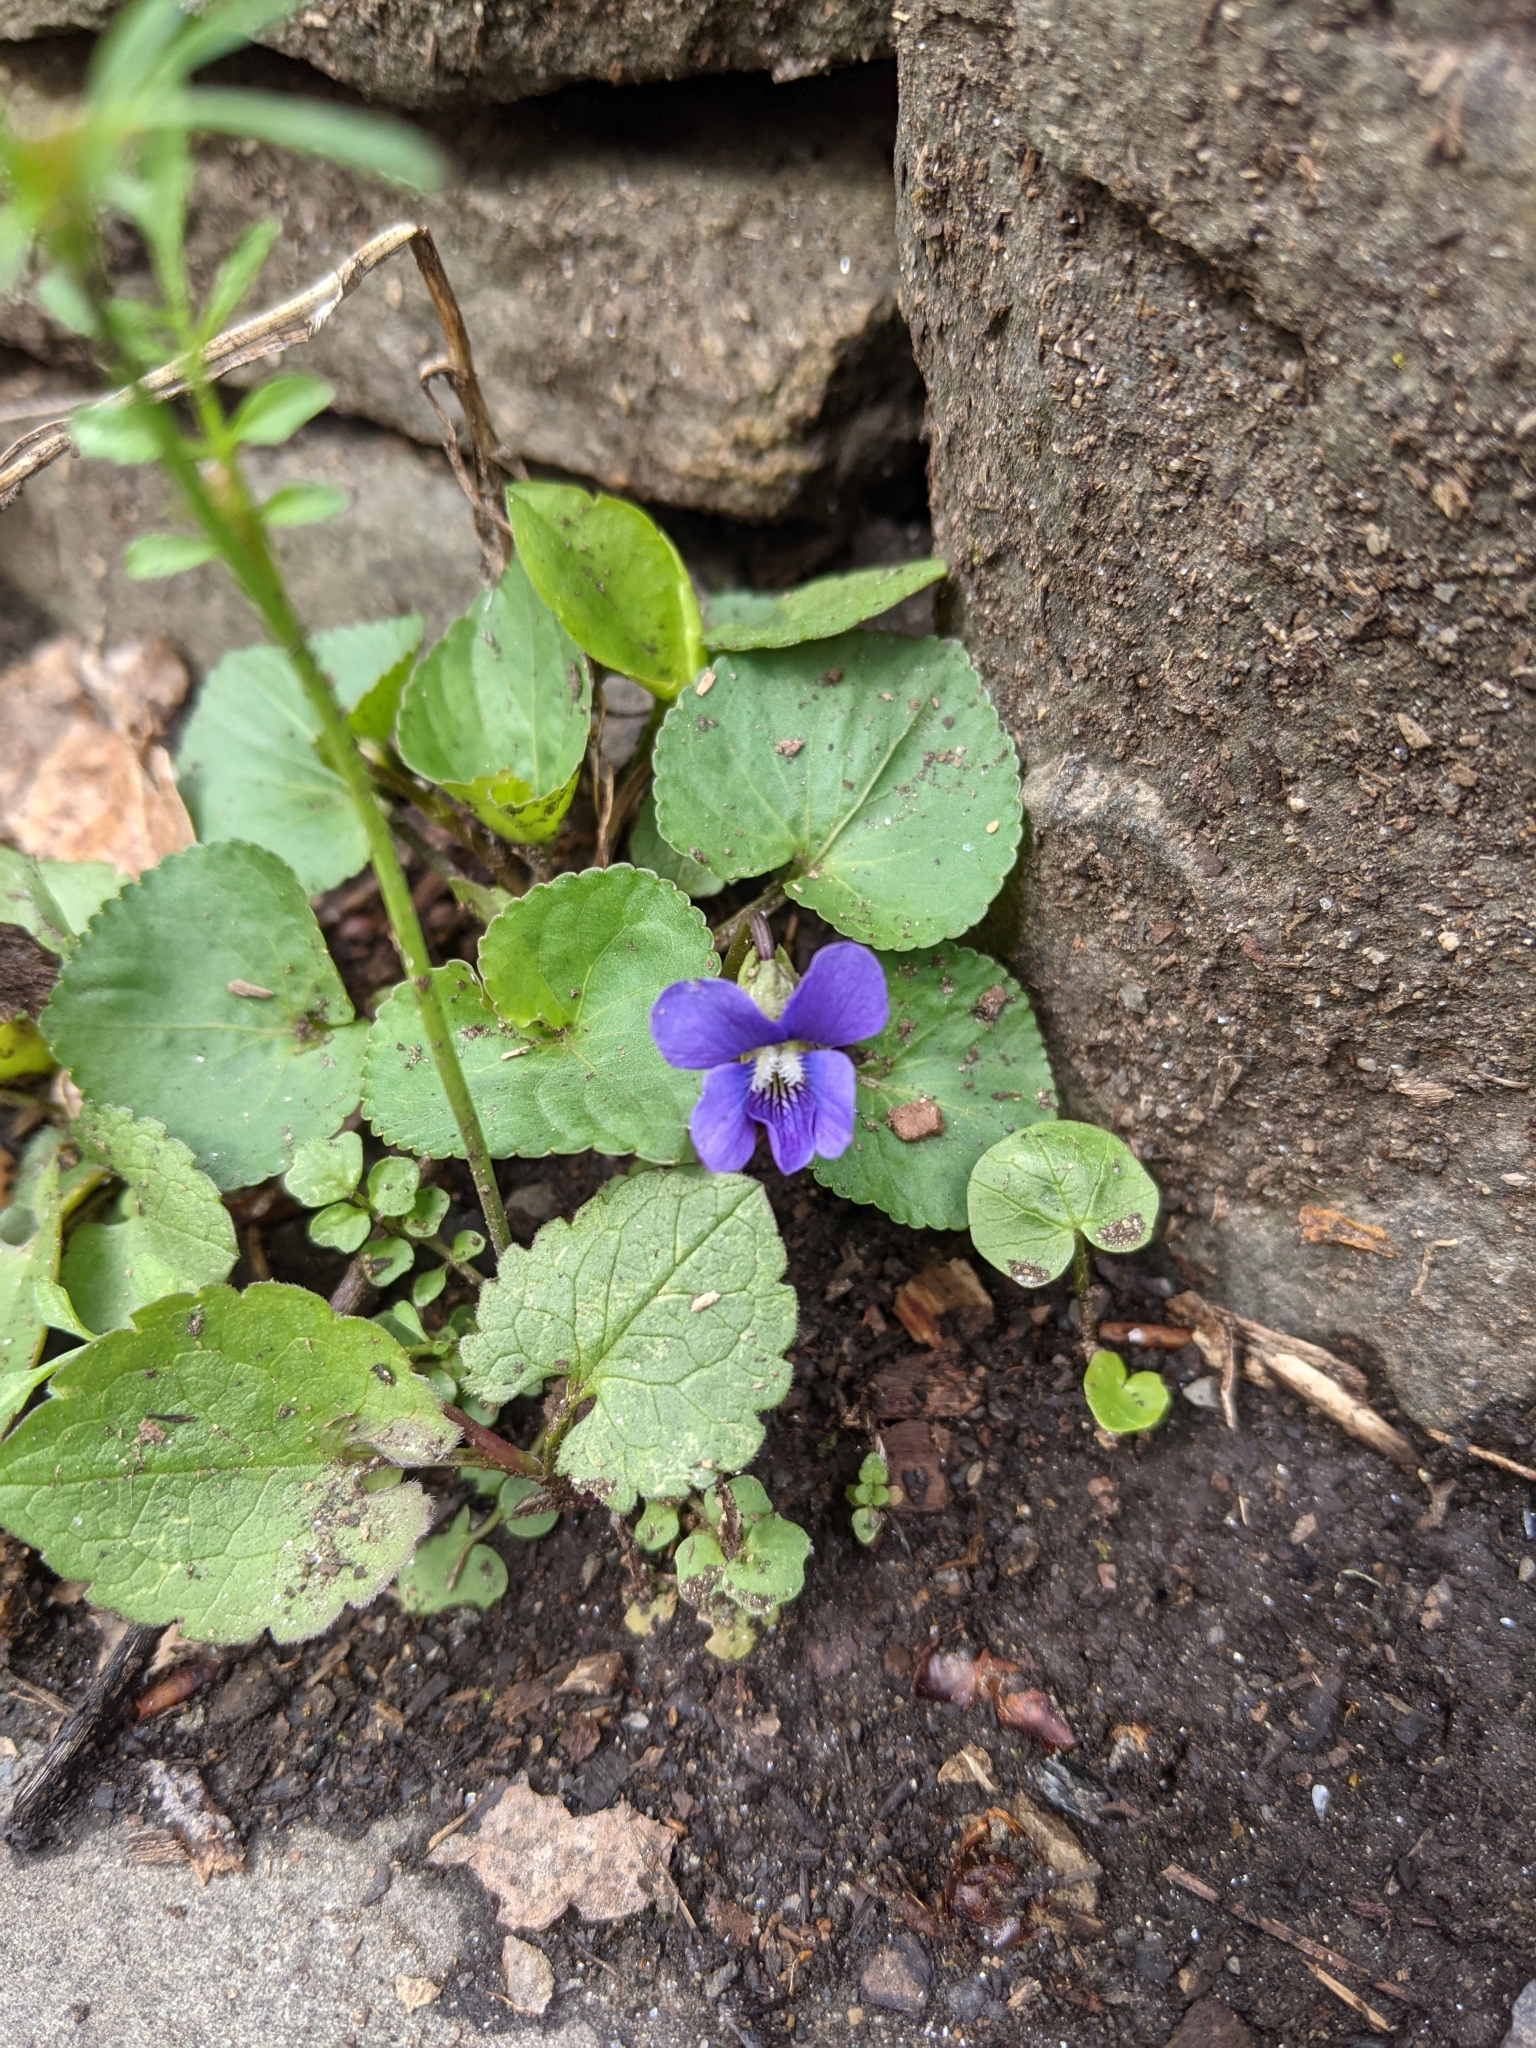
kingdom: Plantae
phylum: Tracheophyta
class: Magnoliopsida
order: Malpighiales
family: Violaceae
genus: Viola
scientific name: Viola sororia
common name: Dooryard violet
